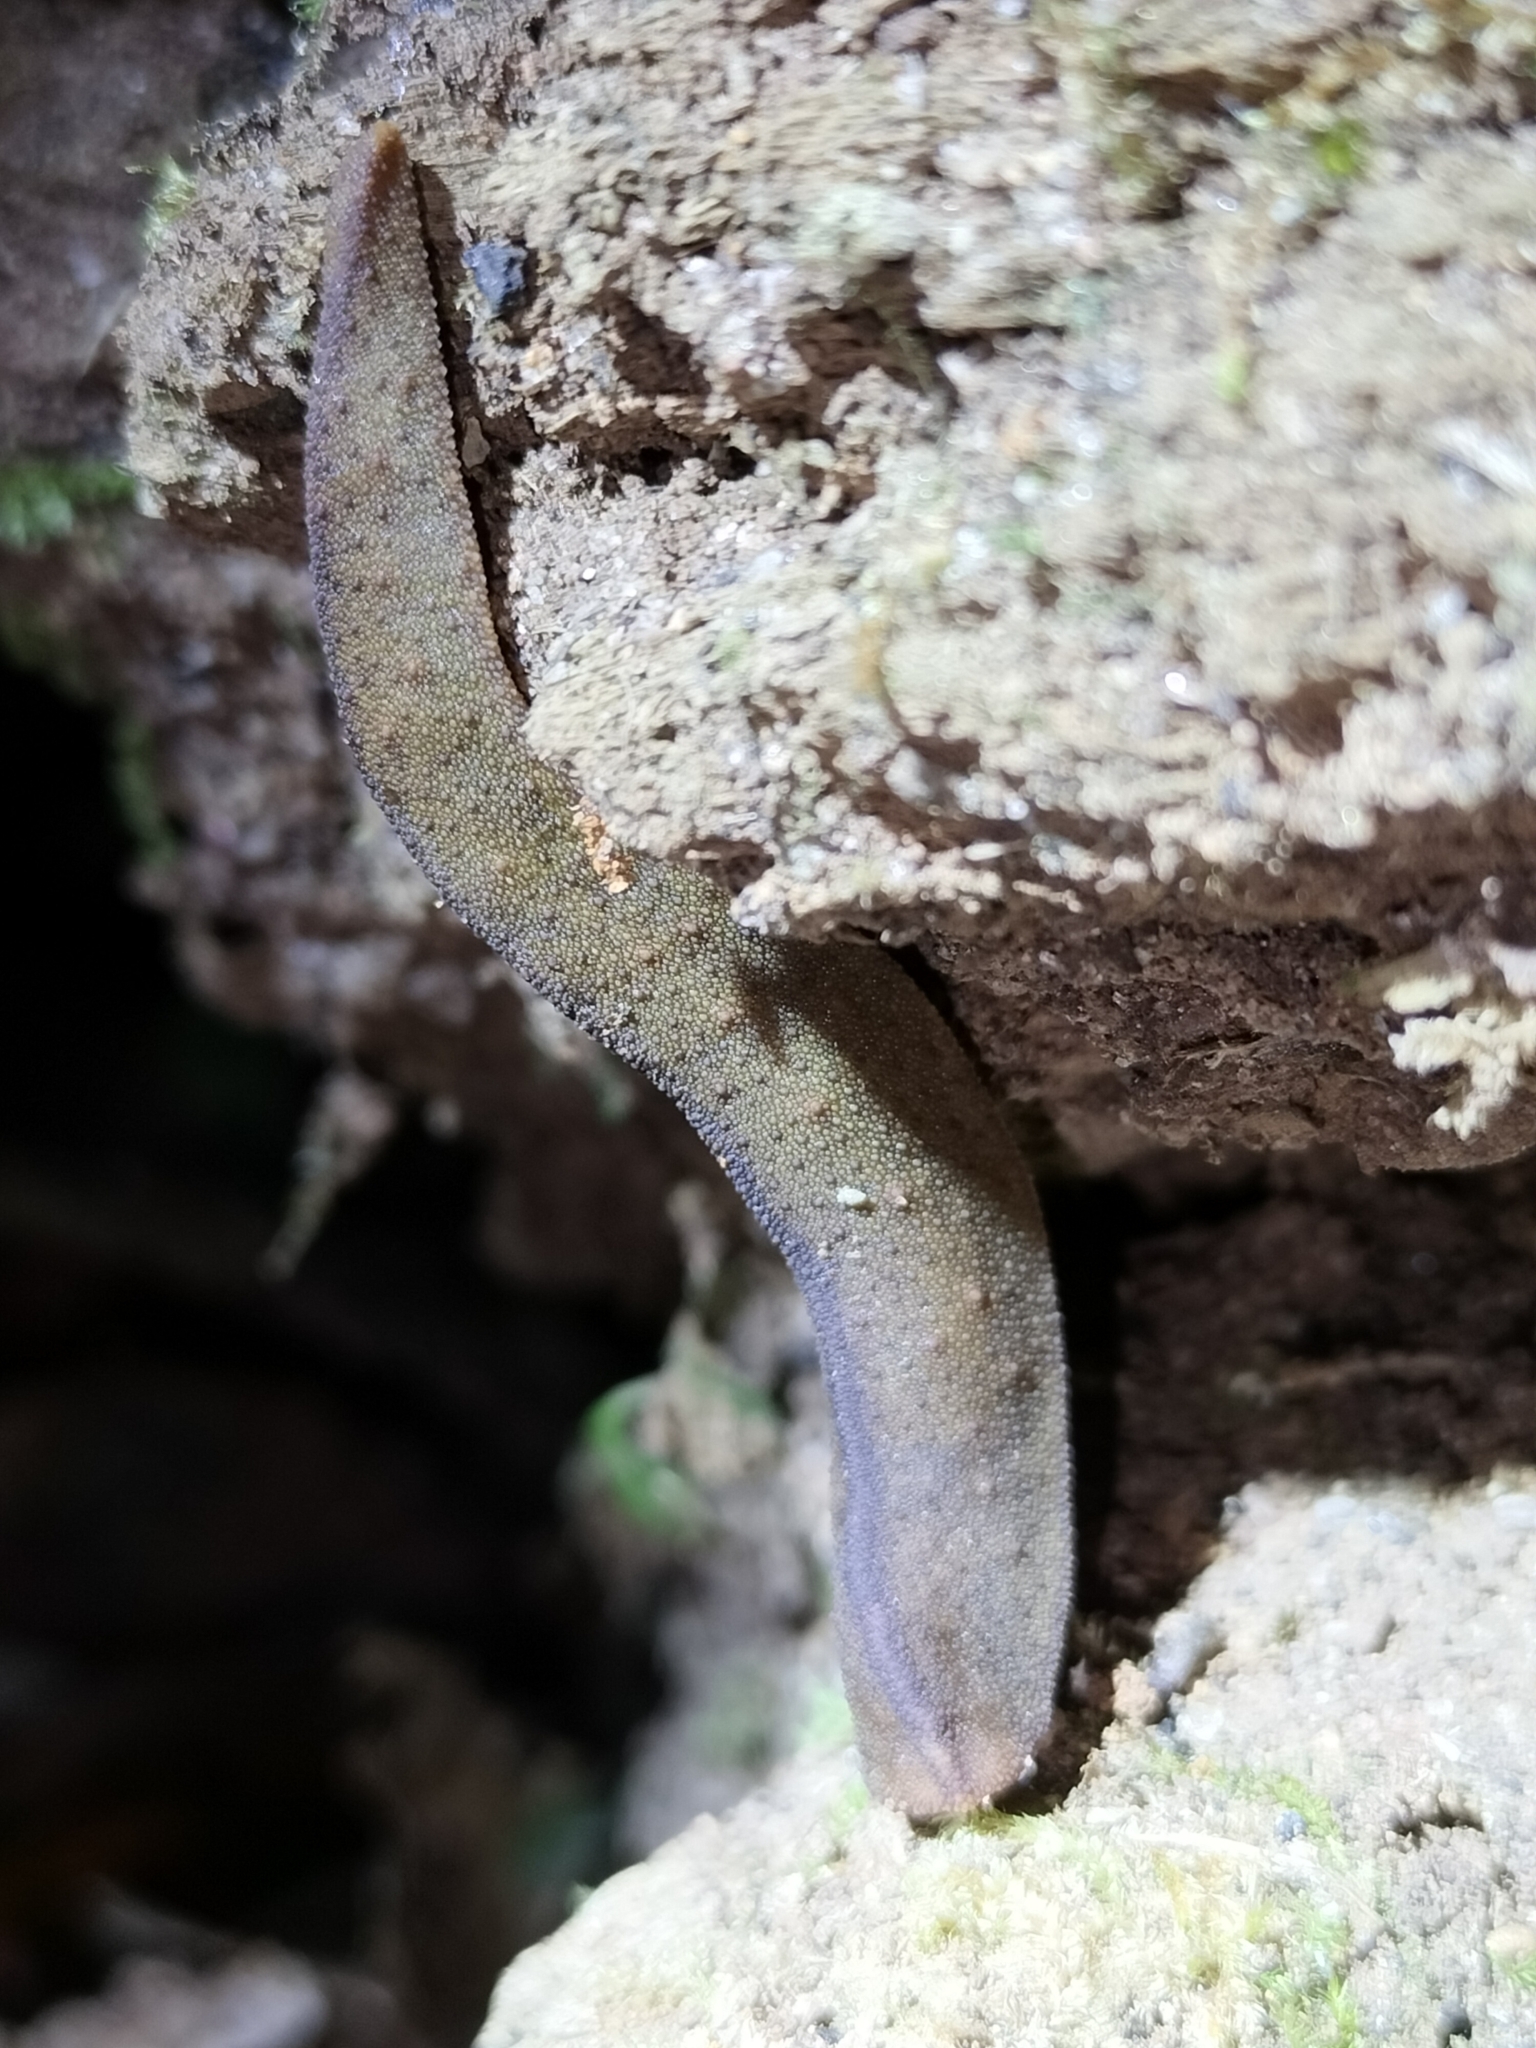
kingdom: Animalia
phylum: Mollusca
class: Gastropoda
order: Systellommatophora
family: Rathouisiidae
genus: Atopos
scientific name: Atopos australis
